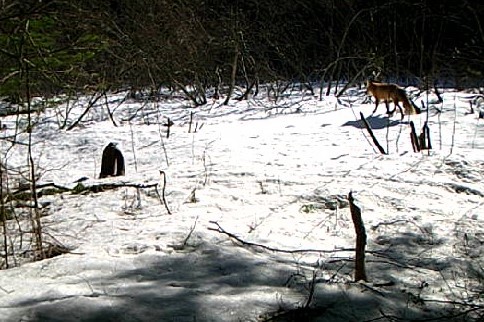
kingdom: Animalia
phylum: Chordata
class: Mammalia
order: Carnivora
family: Canidae
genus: Vulpes
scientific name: Vulpes vulpes
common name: Red fox
